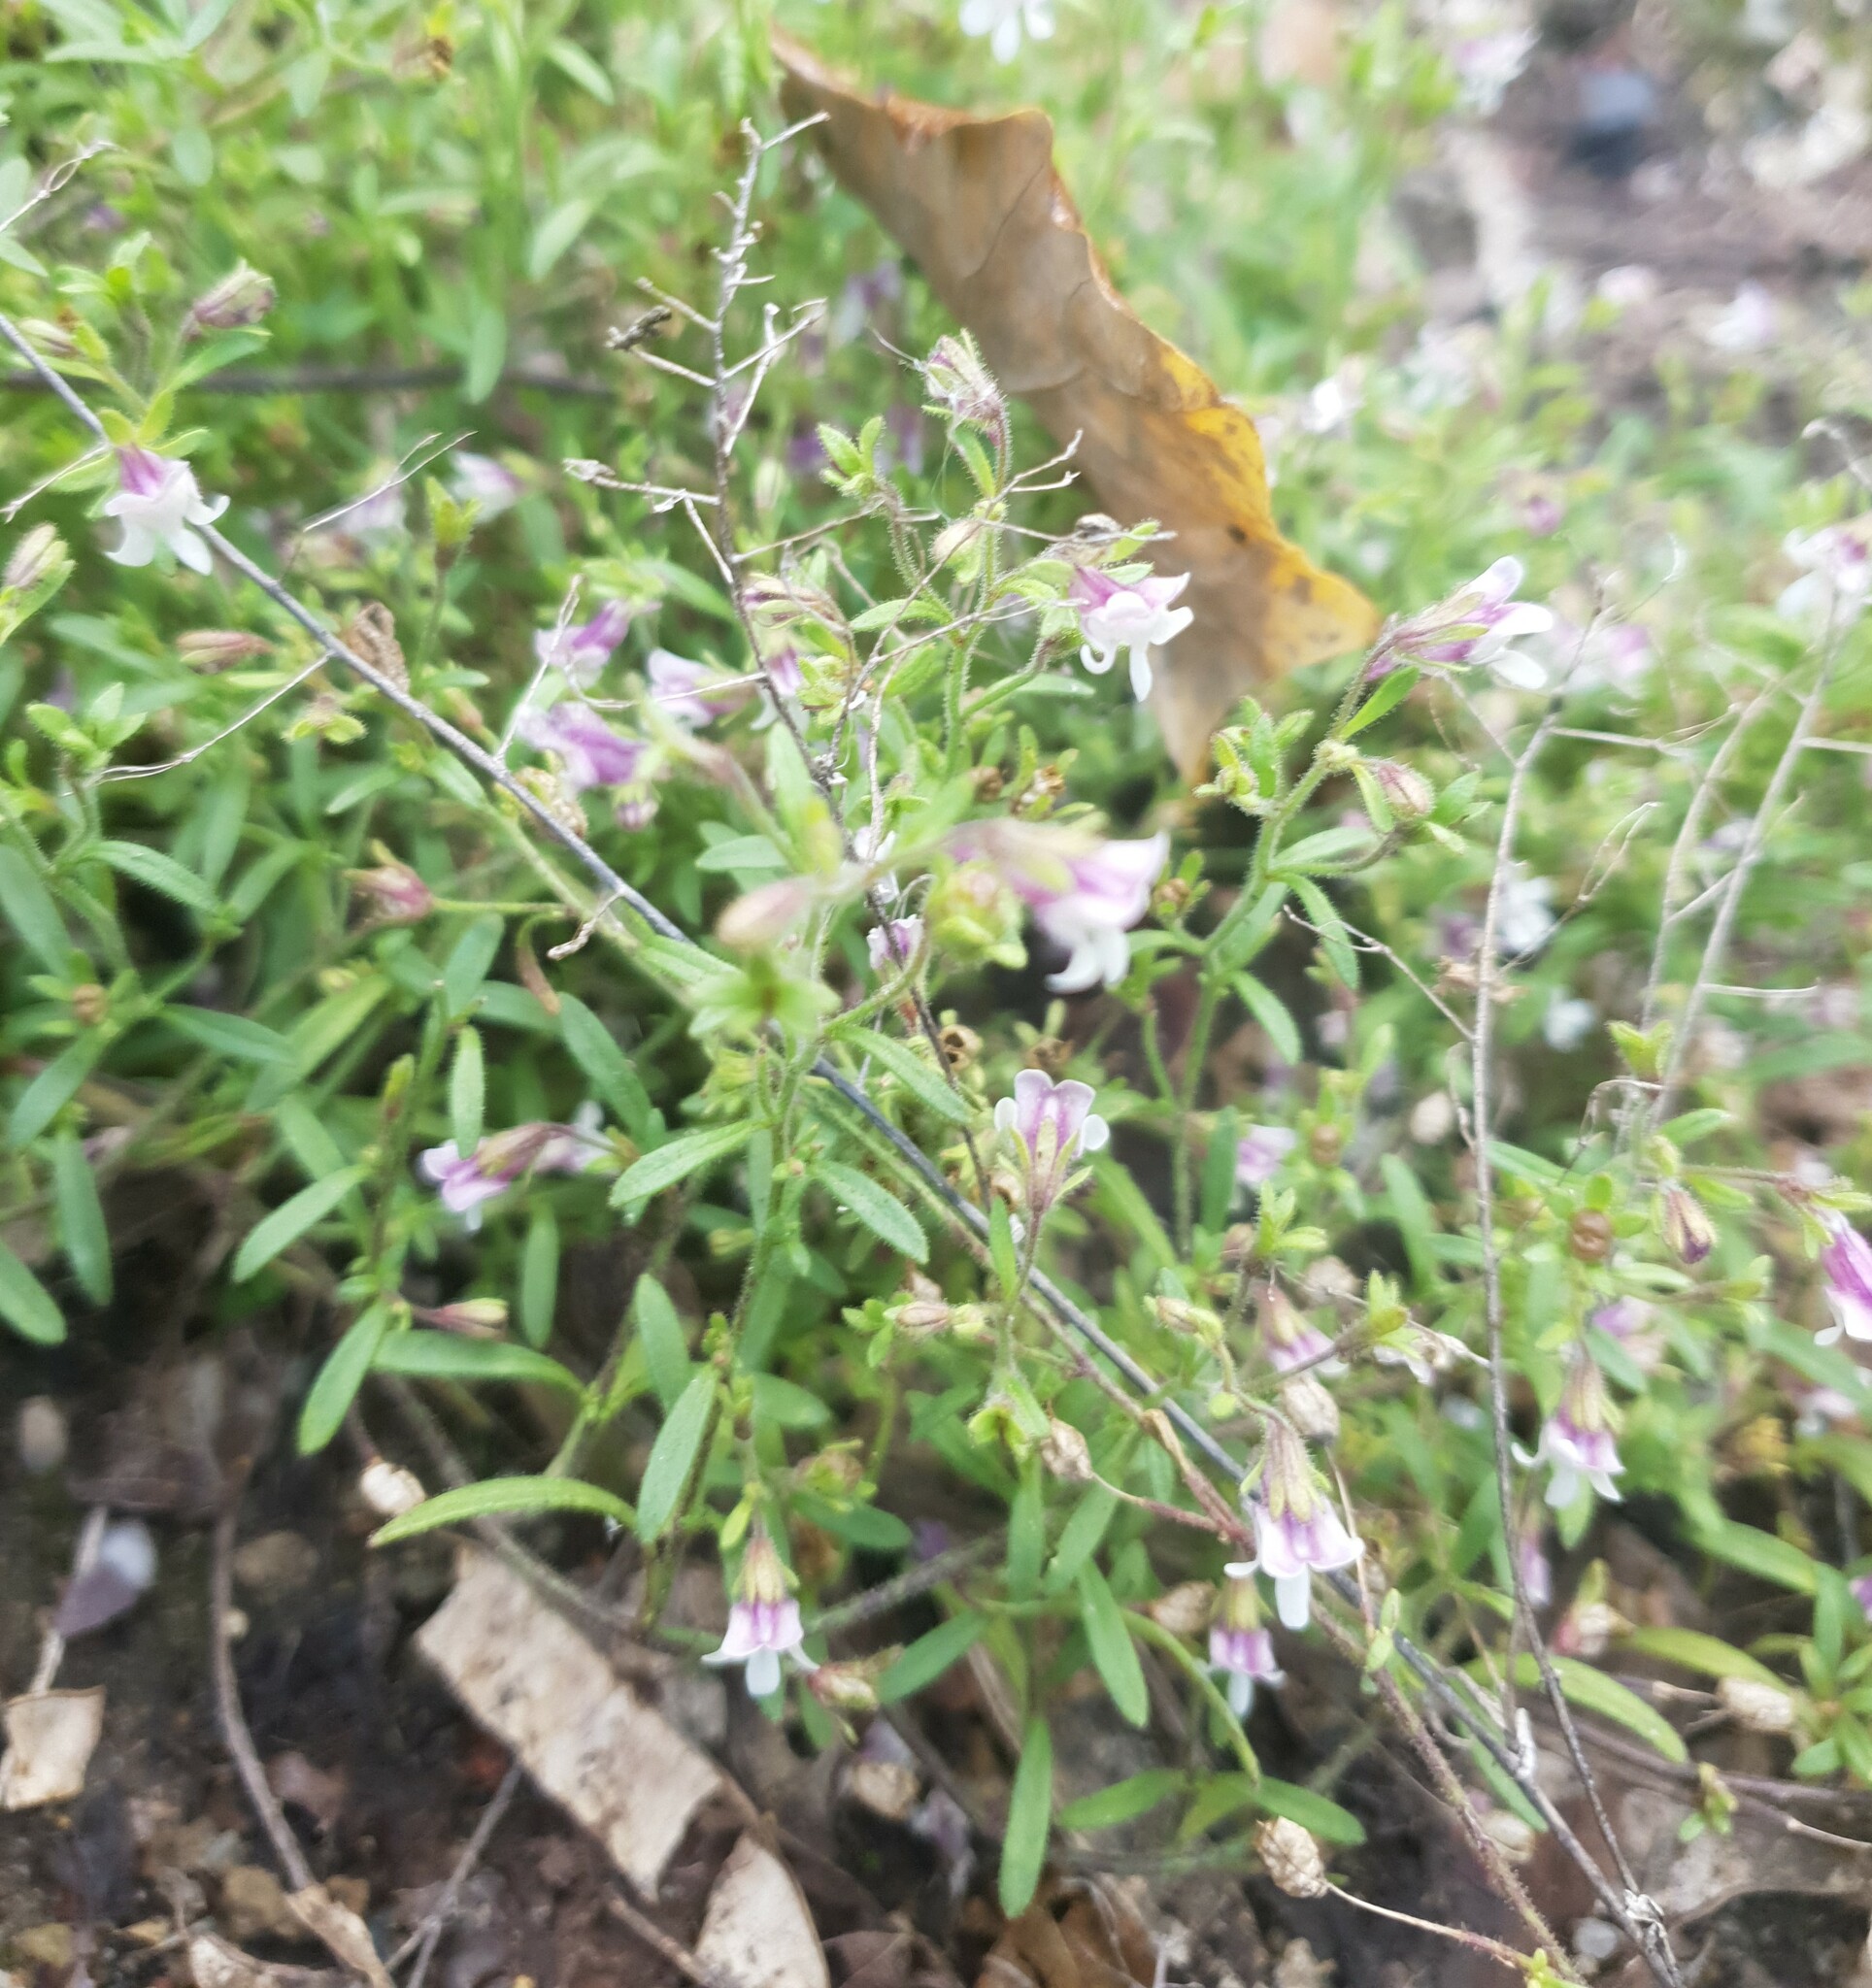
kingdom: Plantae
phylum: Tracheophyta
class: Magnoliopsida
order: Lamiales
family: Plantaginaceae
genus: Chaenorhinum
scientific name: Chaenorhinum minus
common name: Dwarf snapdragon
